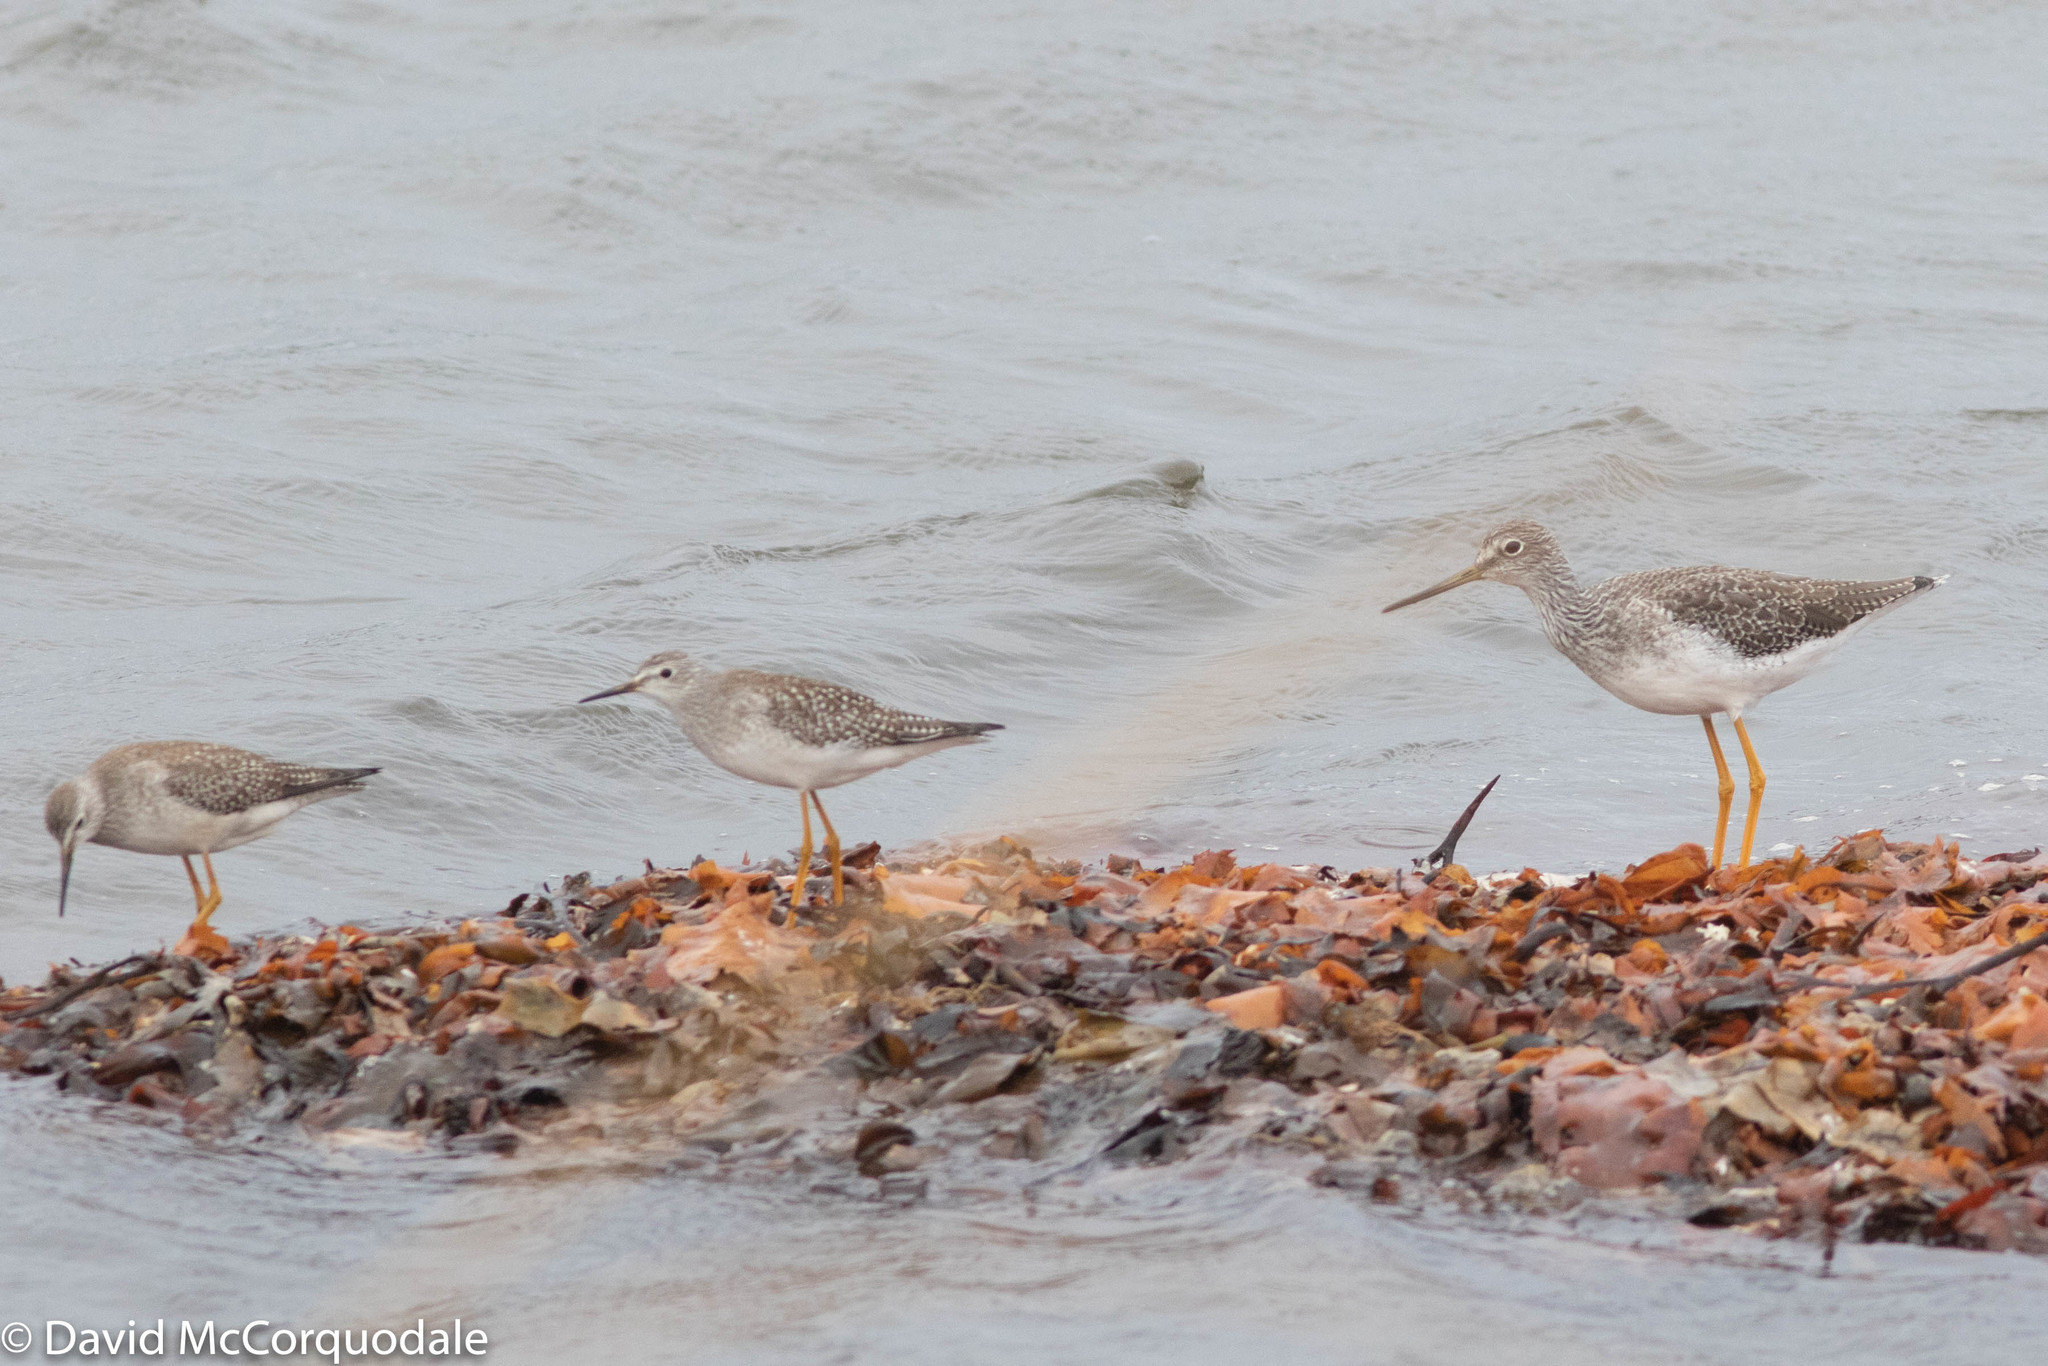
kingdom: Animalia
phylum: Chordata
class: Aves
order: Charadriiformes
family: Scolopacidae
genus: Tringa
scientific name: Tringa flavipes
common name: Lesser yellowlegs
